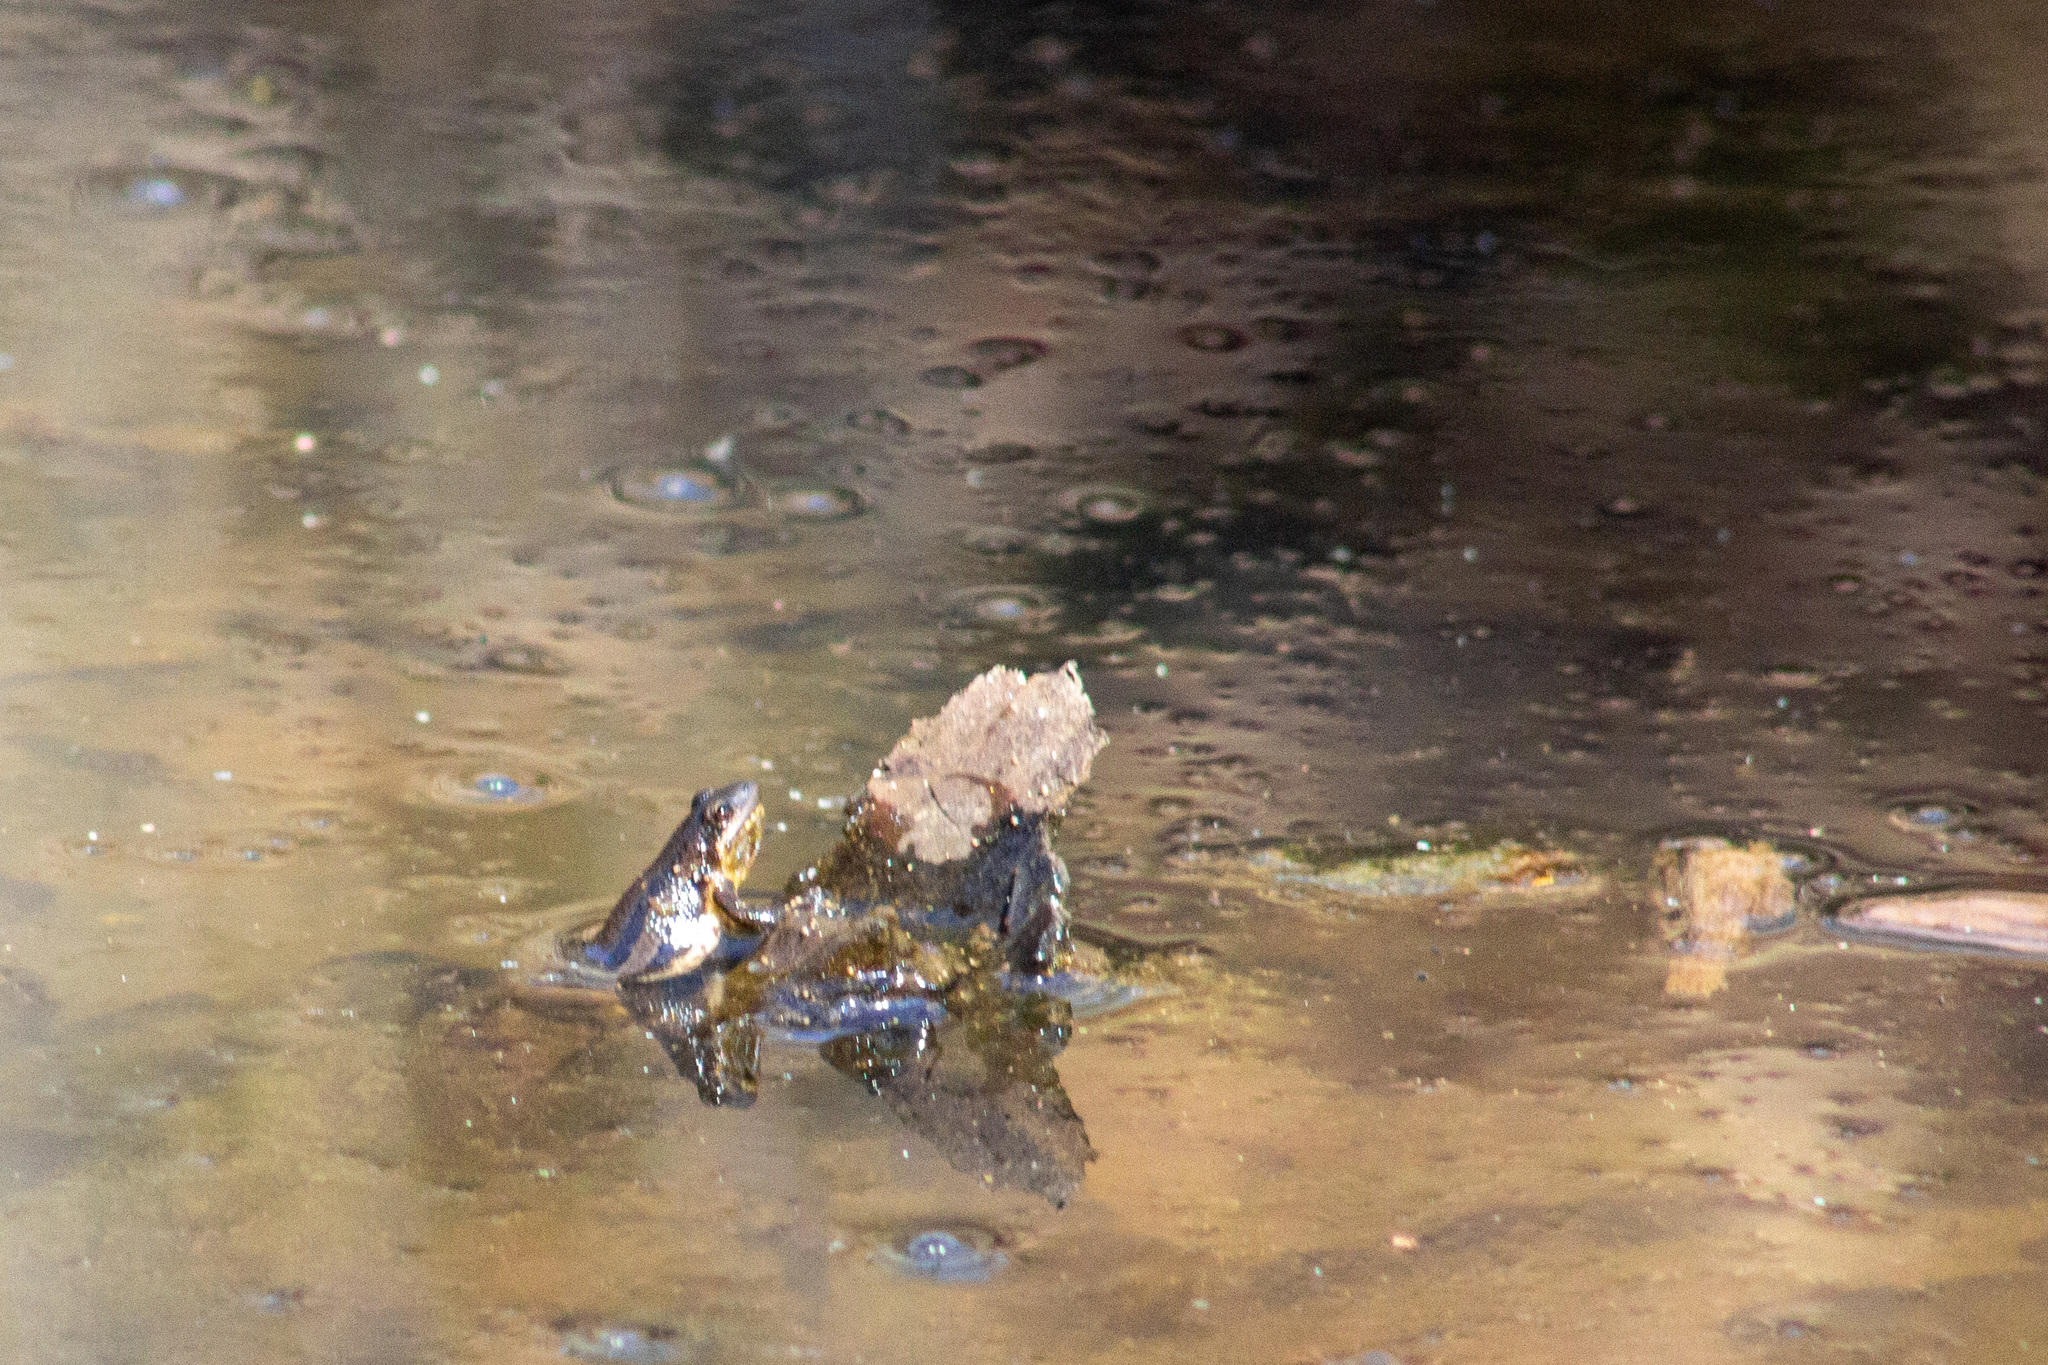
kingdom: Animalia
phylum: Chordata
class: Amphibia
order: Anura
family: Hylidae
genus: Pseudacris
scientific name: Pseudacris maculata
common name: Boreal chorus frog
